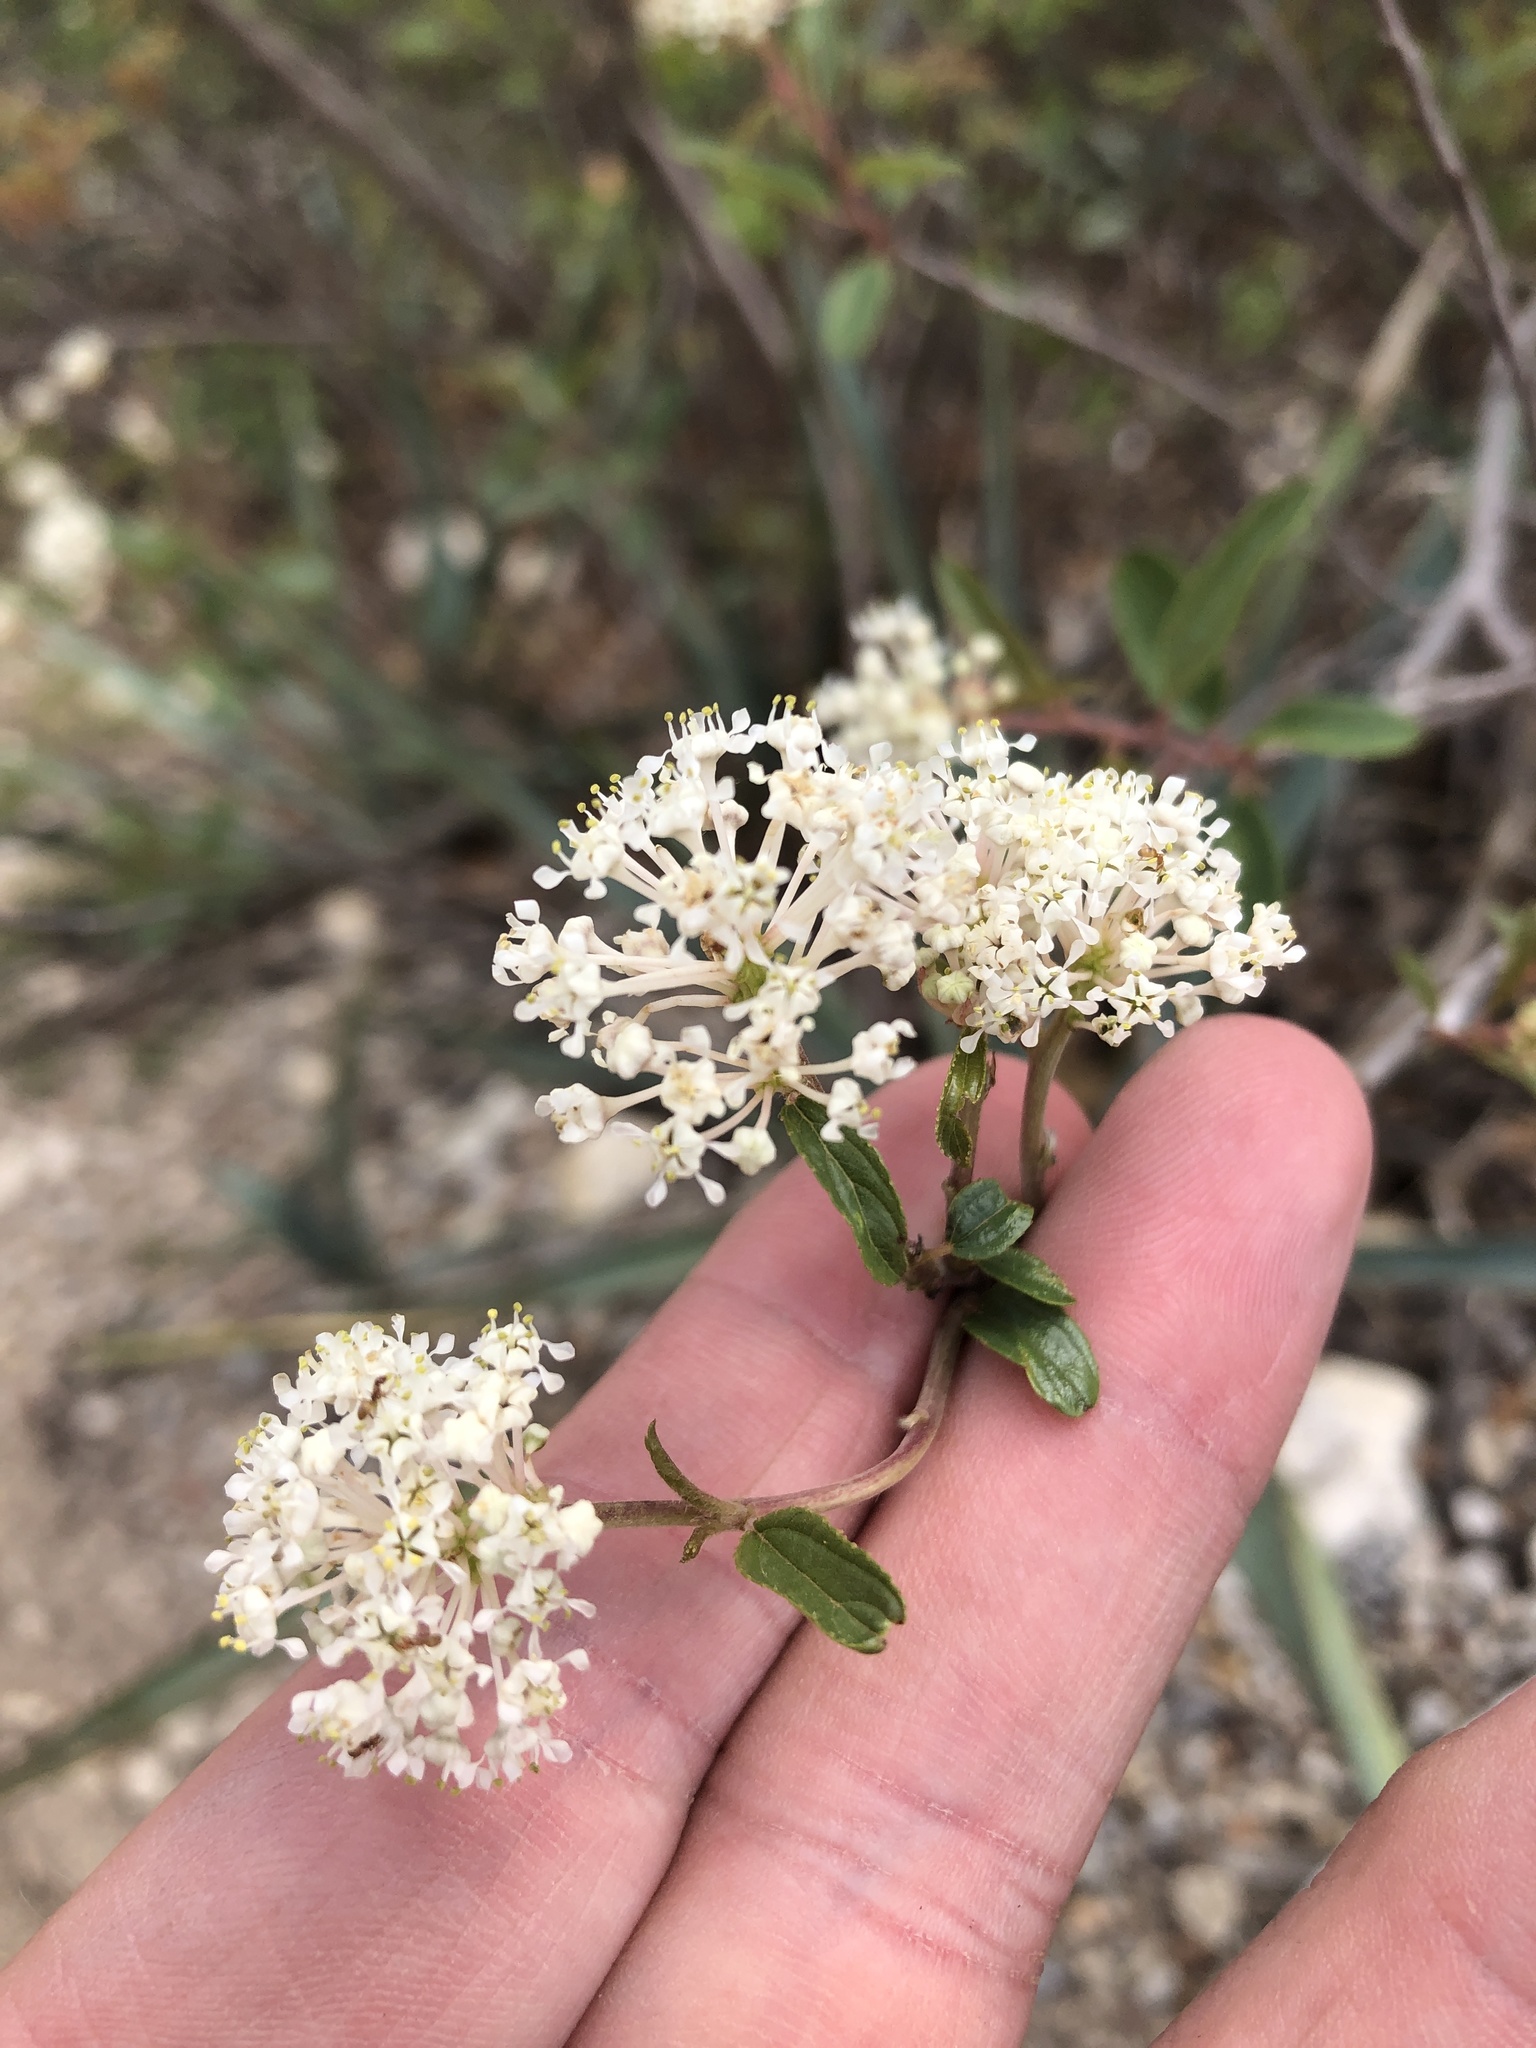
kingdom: Plantae
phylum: Tracheophyta
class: Magnoliopsida
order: Rosales
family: Rhamnaceae
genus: Ceanothus
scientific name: Ceanothus herbaceus
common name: Inland ceanothus
